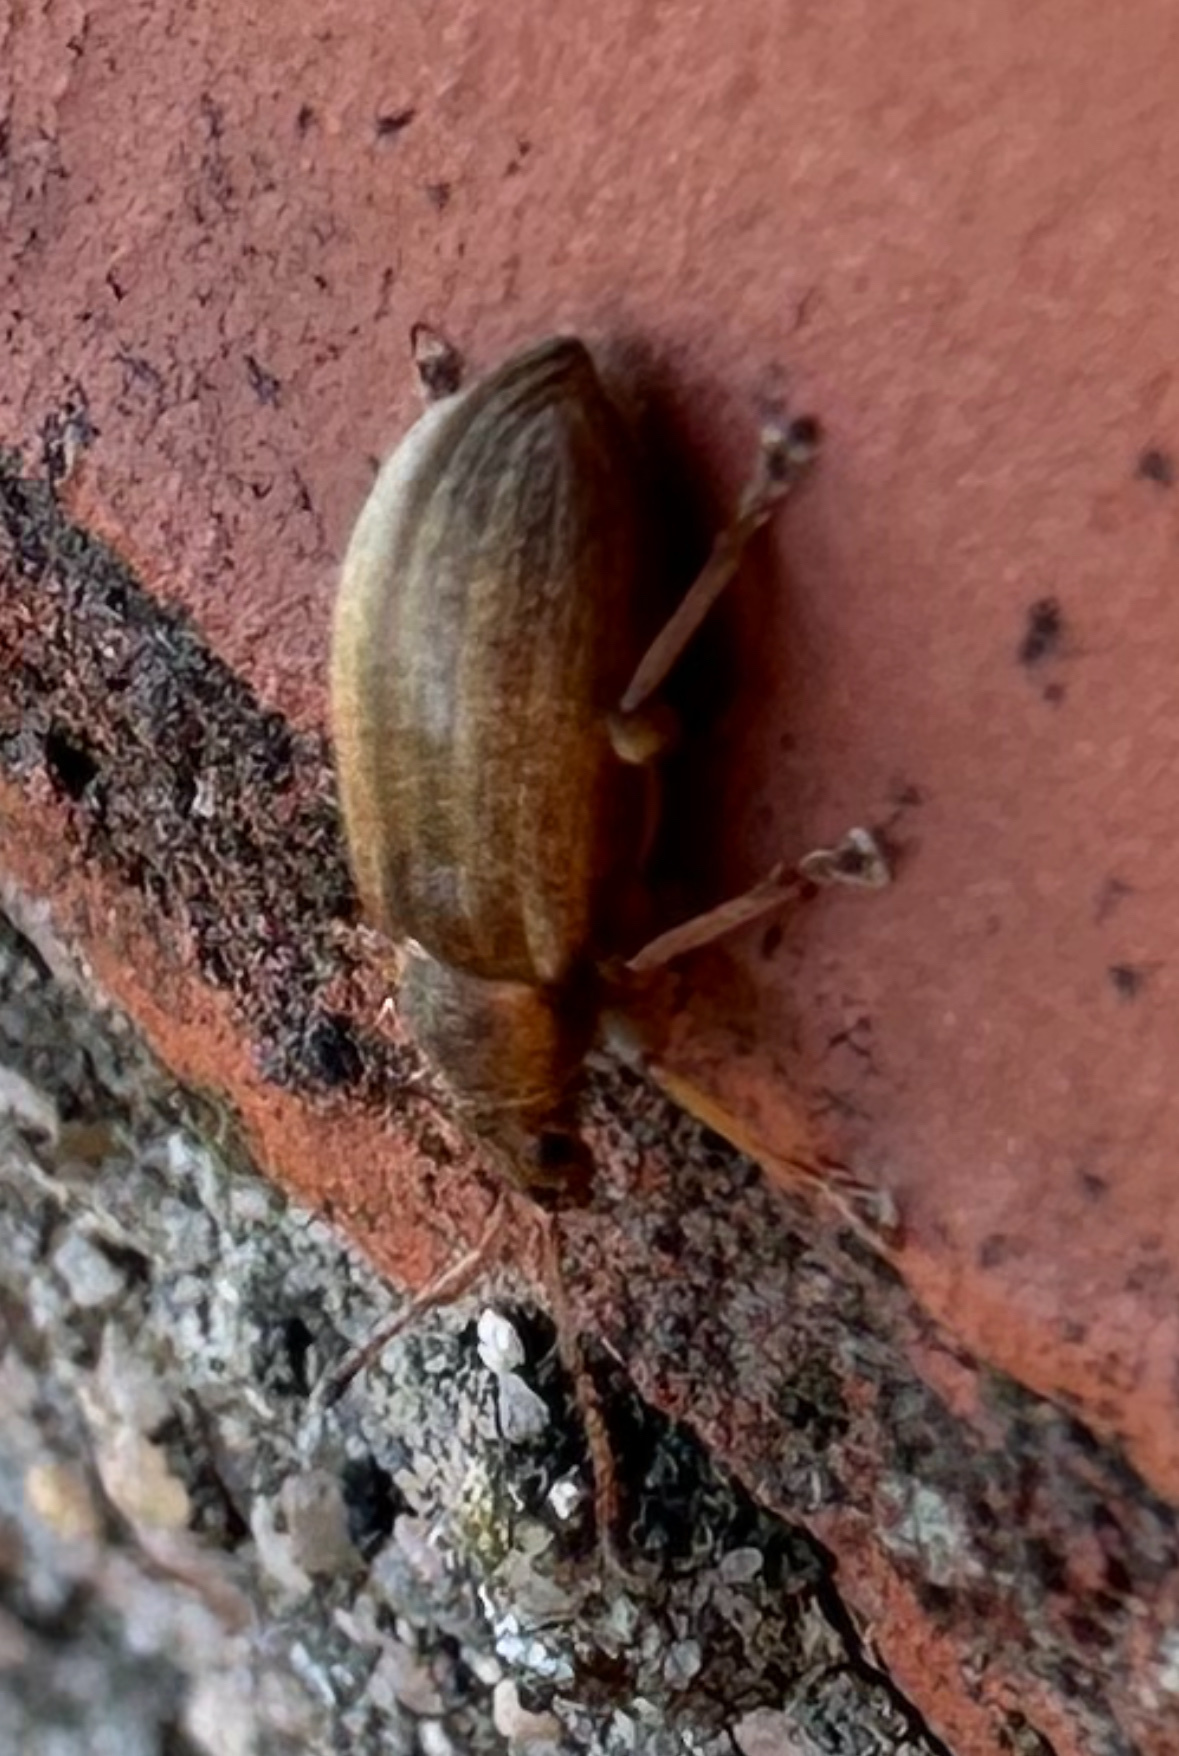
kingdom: Animalia
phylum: Arthropoda
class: Insecta
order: Coleoptera
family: Curculionidae
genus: Phyllobius
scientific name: Phyllobius pyri
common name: Common leaf weevil
